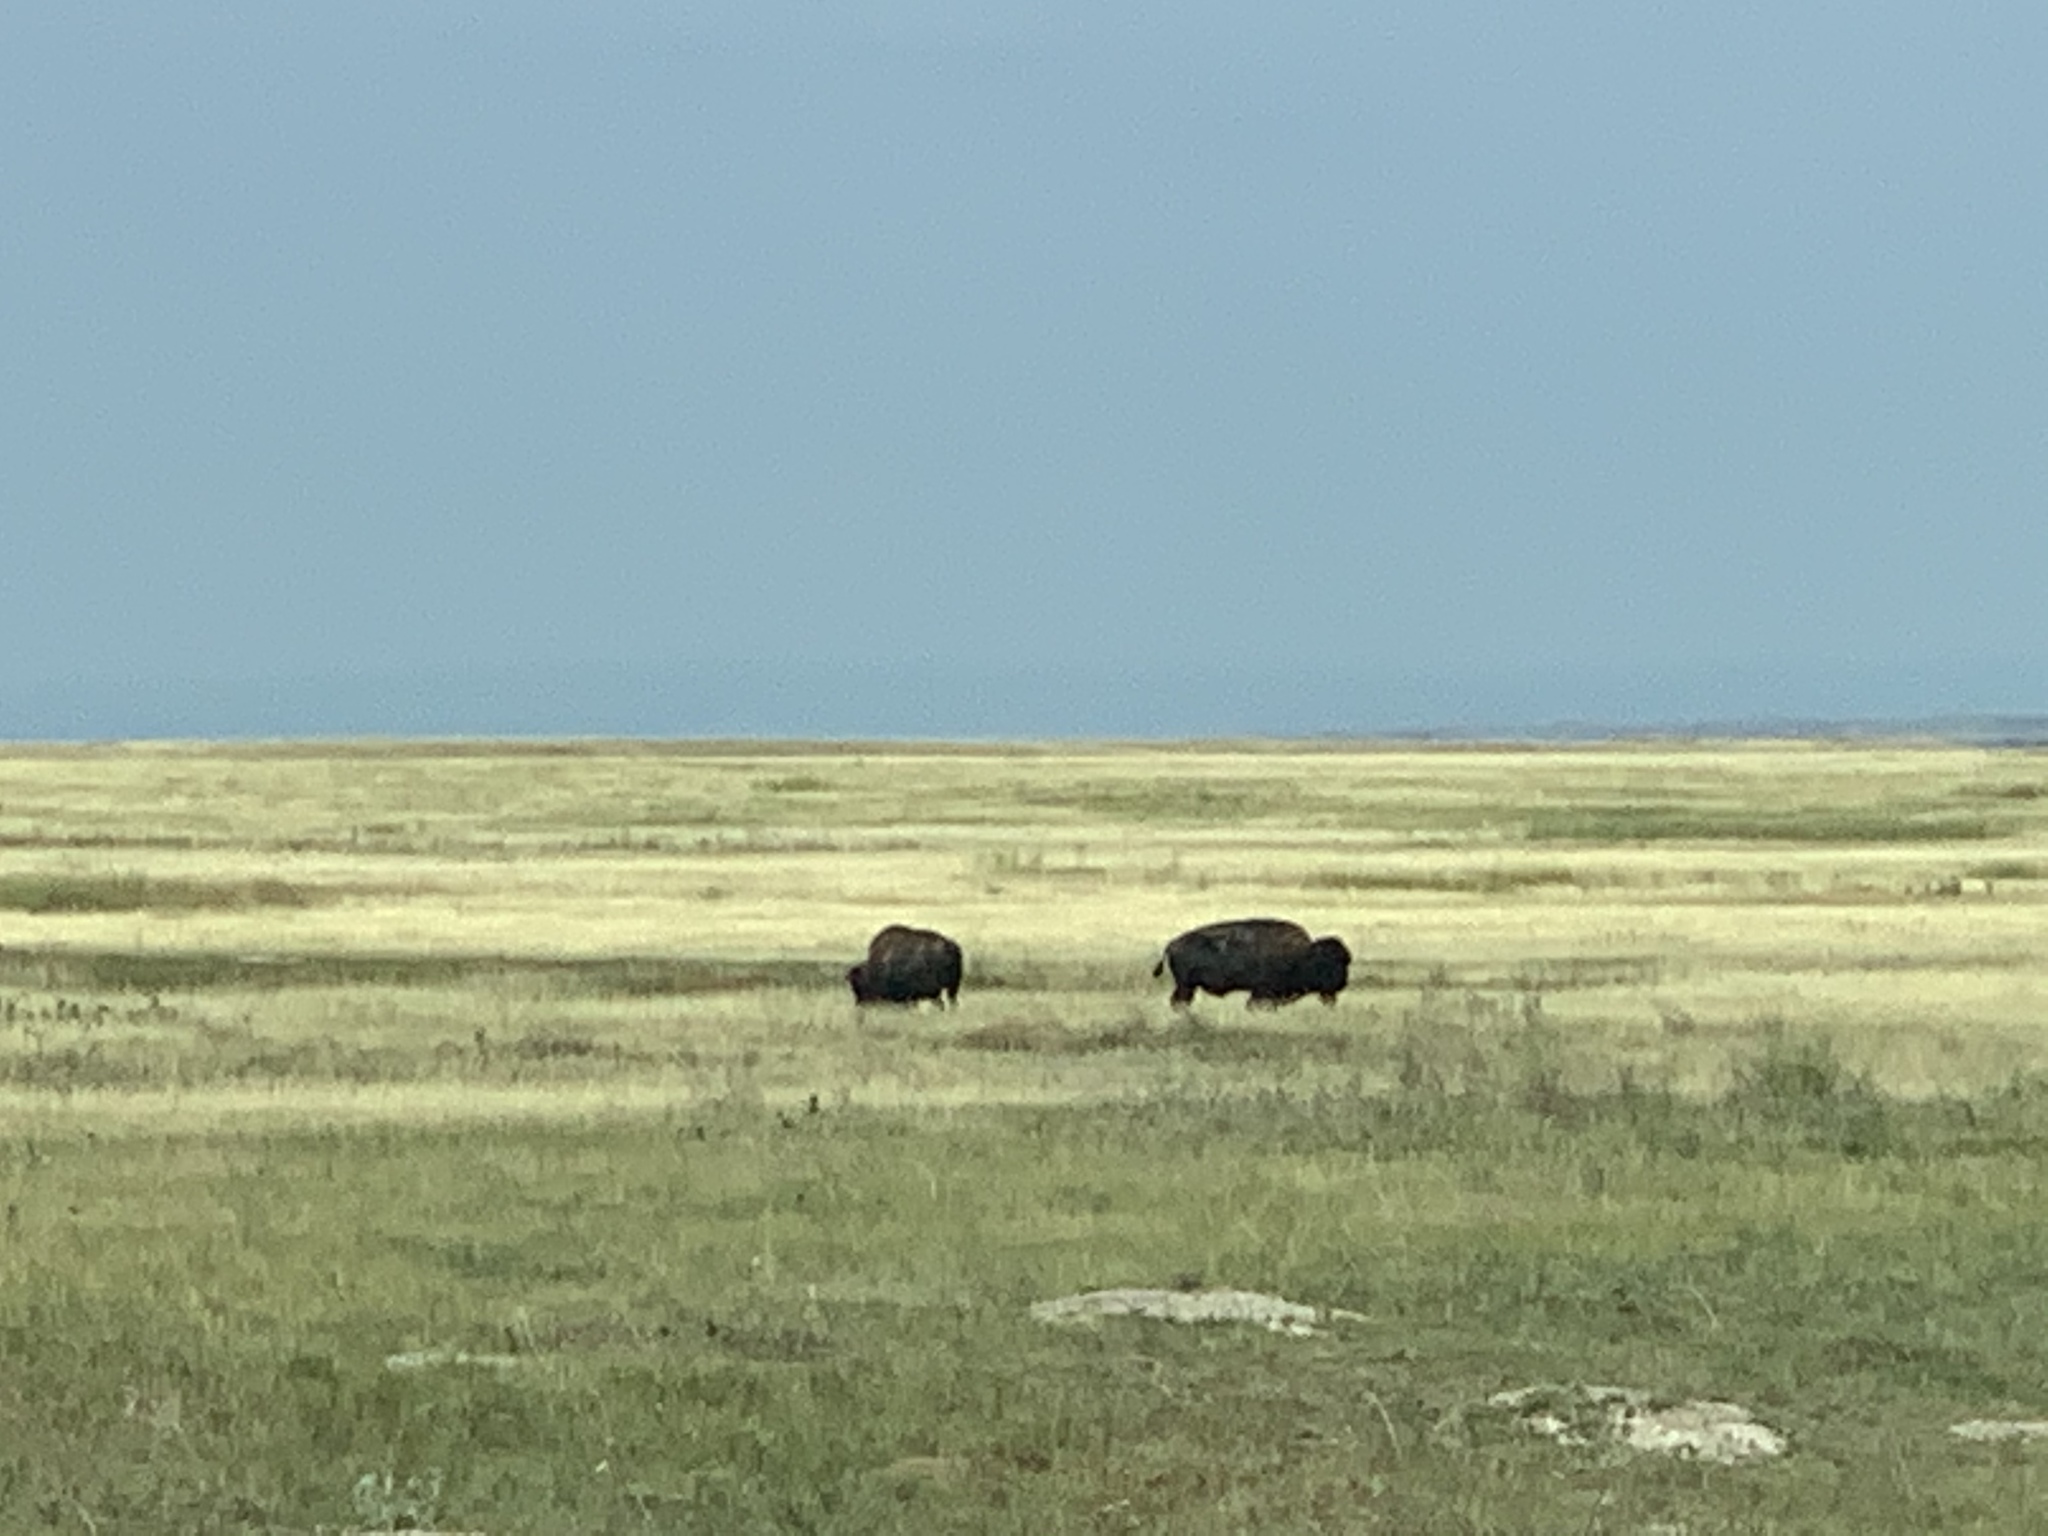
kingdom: Animalia
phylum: Chordata
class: Mammalia
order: Artiodactyla
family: Bovidae
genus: Bison
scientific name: Bison bison
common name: American bison
